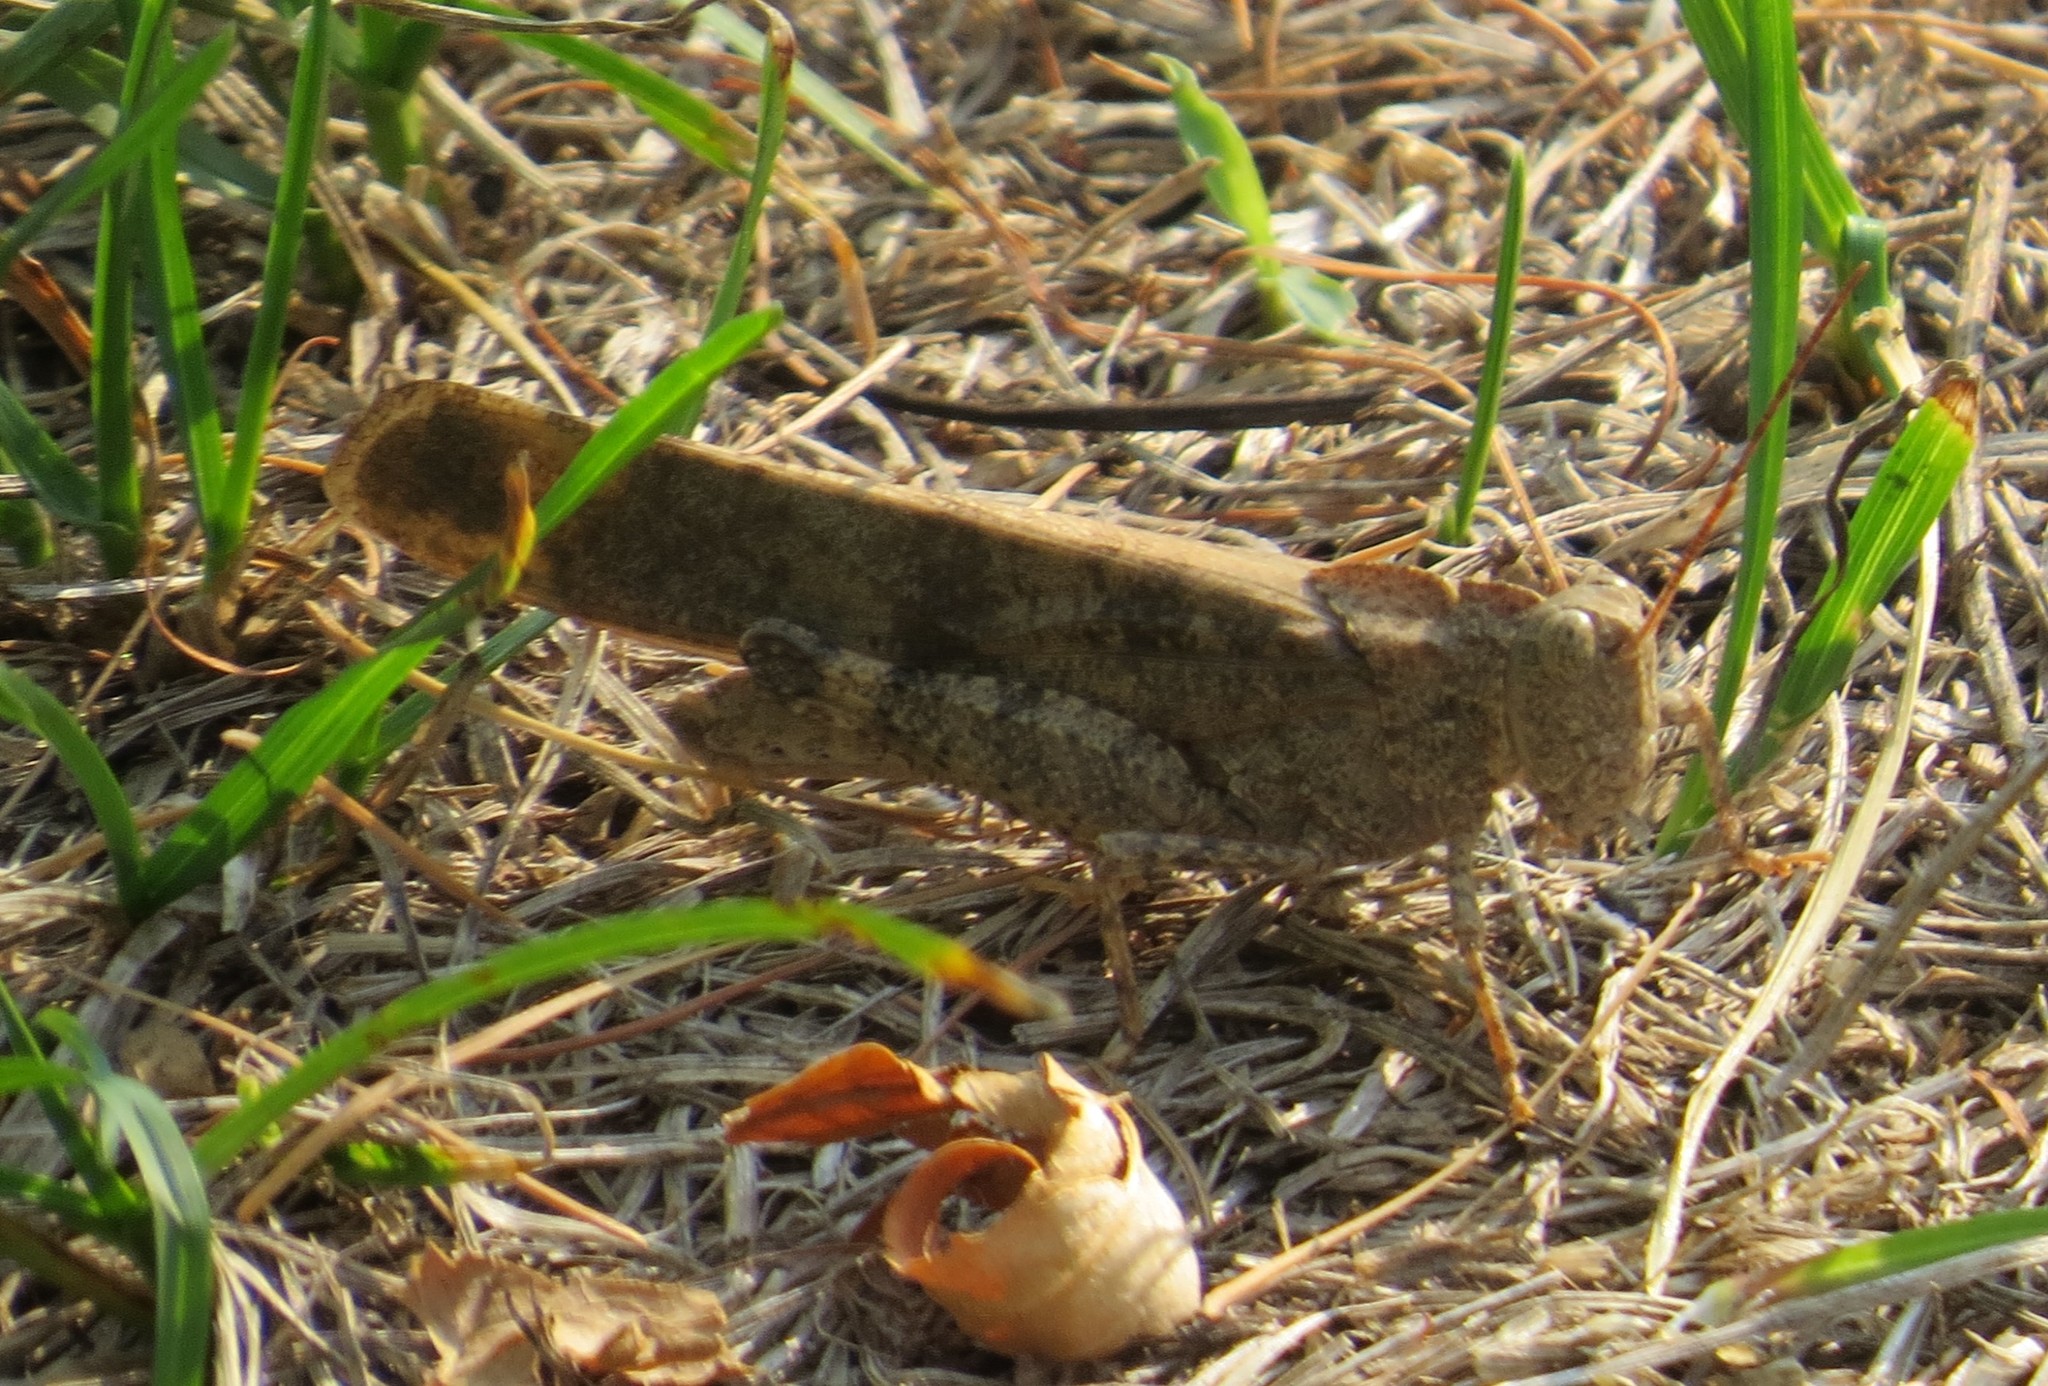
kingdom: Animalia
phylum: Arthropoda
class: Insecta
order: Orthoptera
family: Acrididae
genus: Dissosteira
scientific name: Dissosteira carolina
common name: Carolina grasshopper
